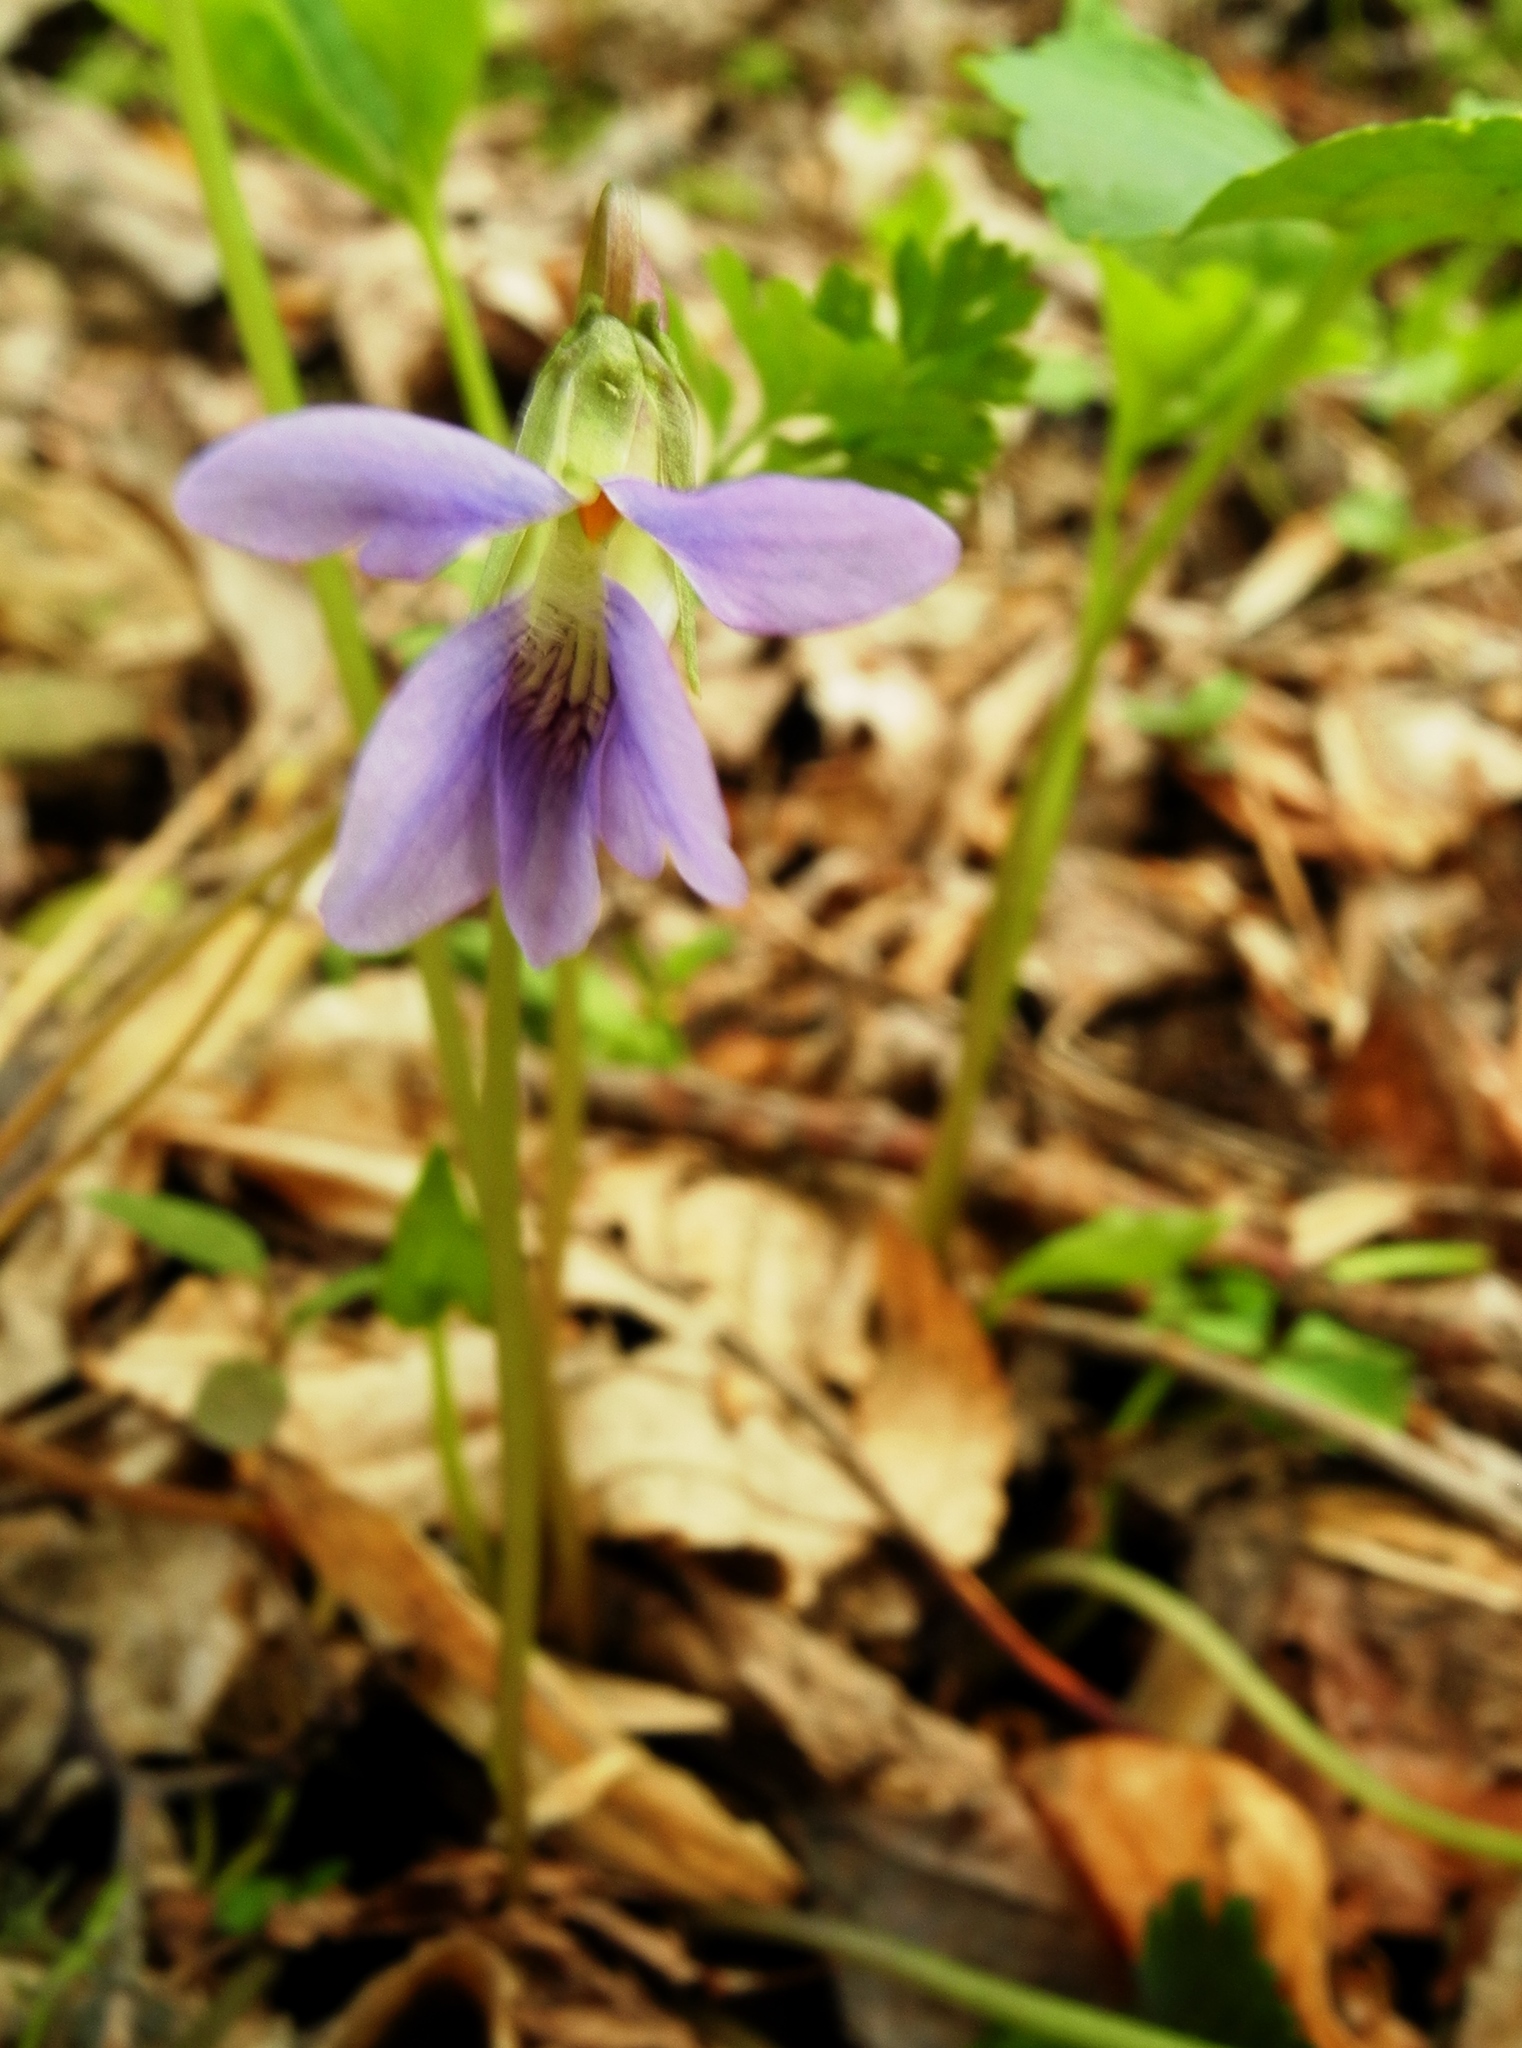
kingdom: Plantae
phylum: Tracheophyta
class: Magnoliopsida
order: Malpighiales
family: Violaceae
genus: Viola
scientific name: Viola affinis
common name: Leconte's violet
